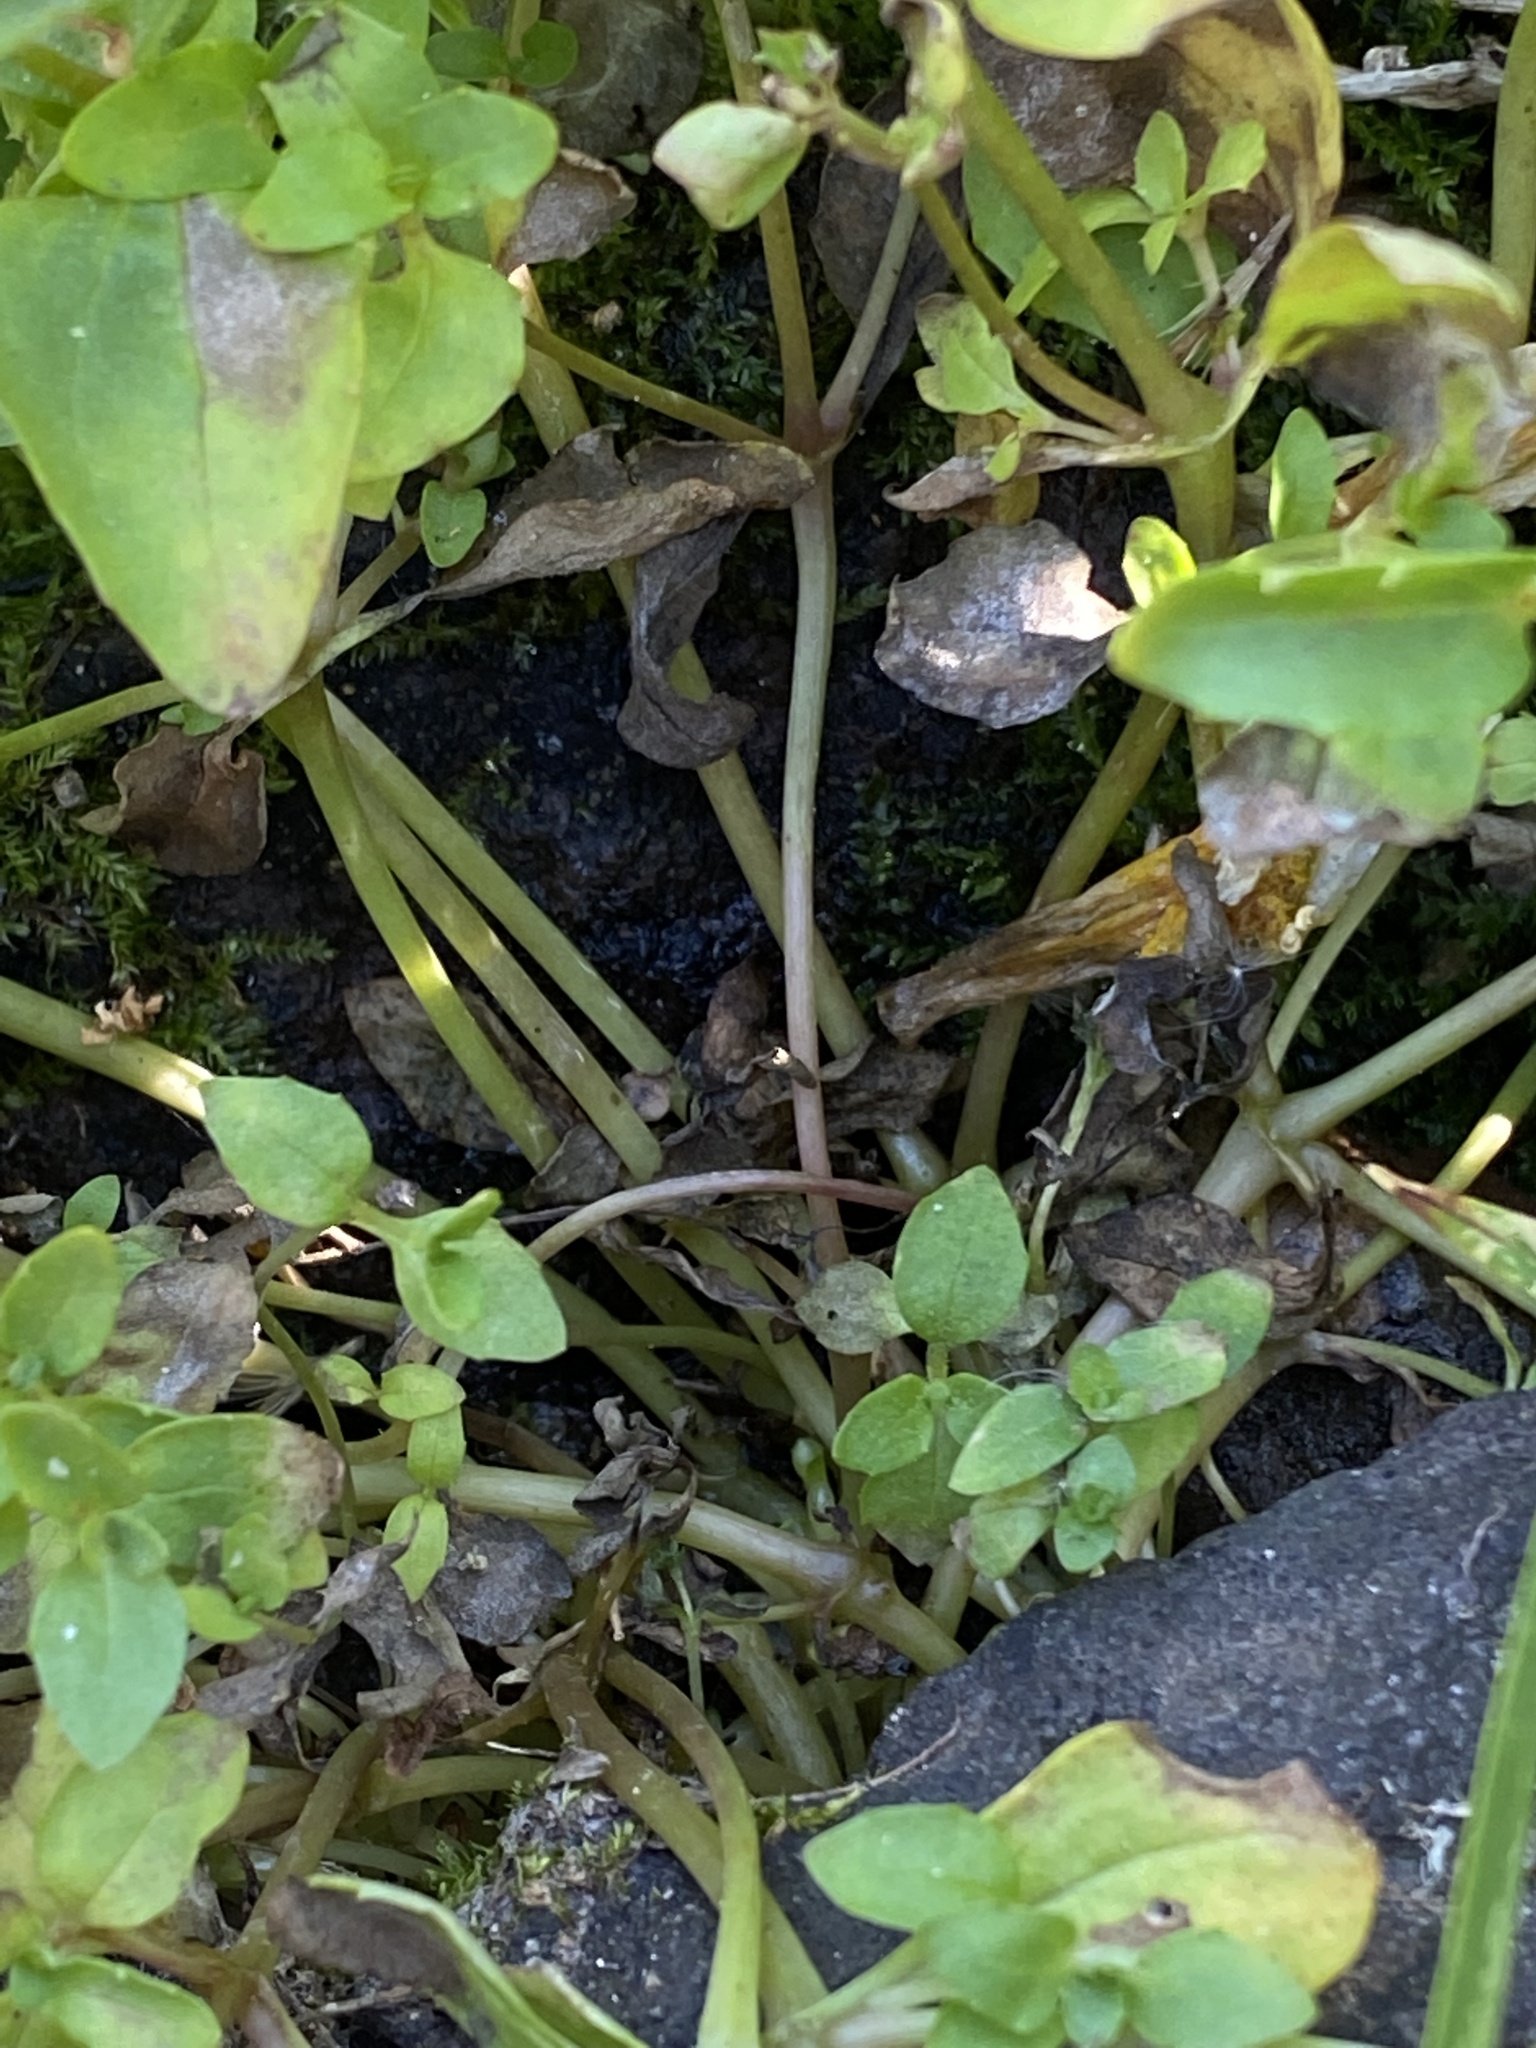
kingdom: Plantae
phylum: Tracheophyta
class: Magnoliopsida
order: Lamiales
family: Phrymaceae
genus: Erythranthe
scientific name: Erythranthe tilingii
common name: Subalpine monkey-flower
